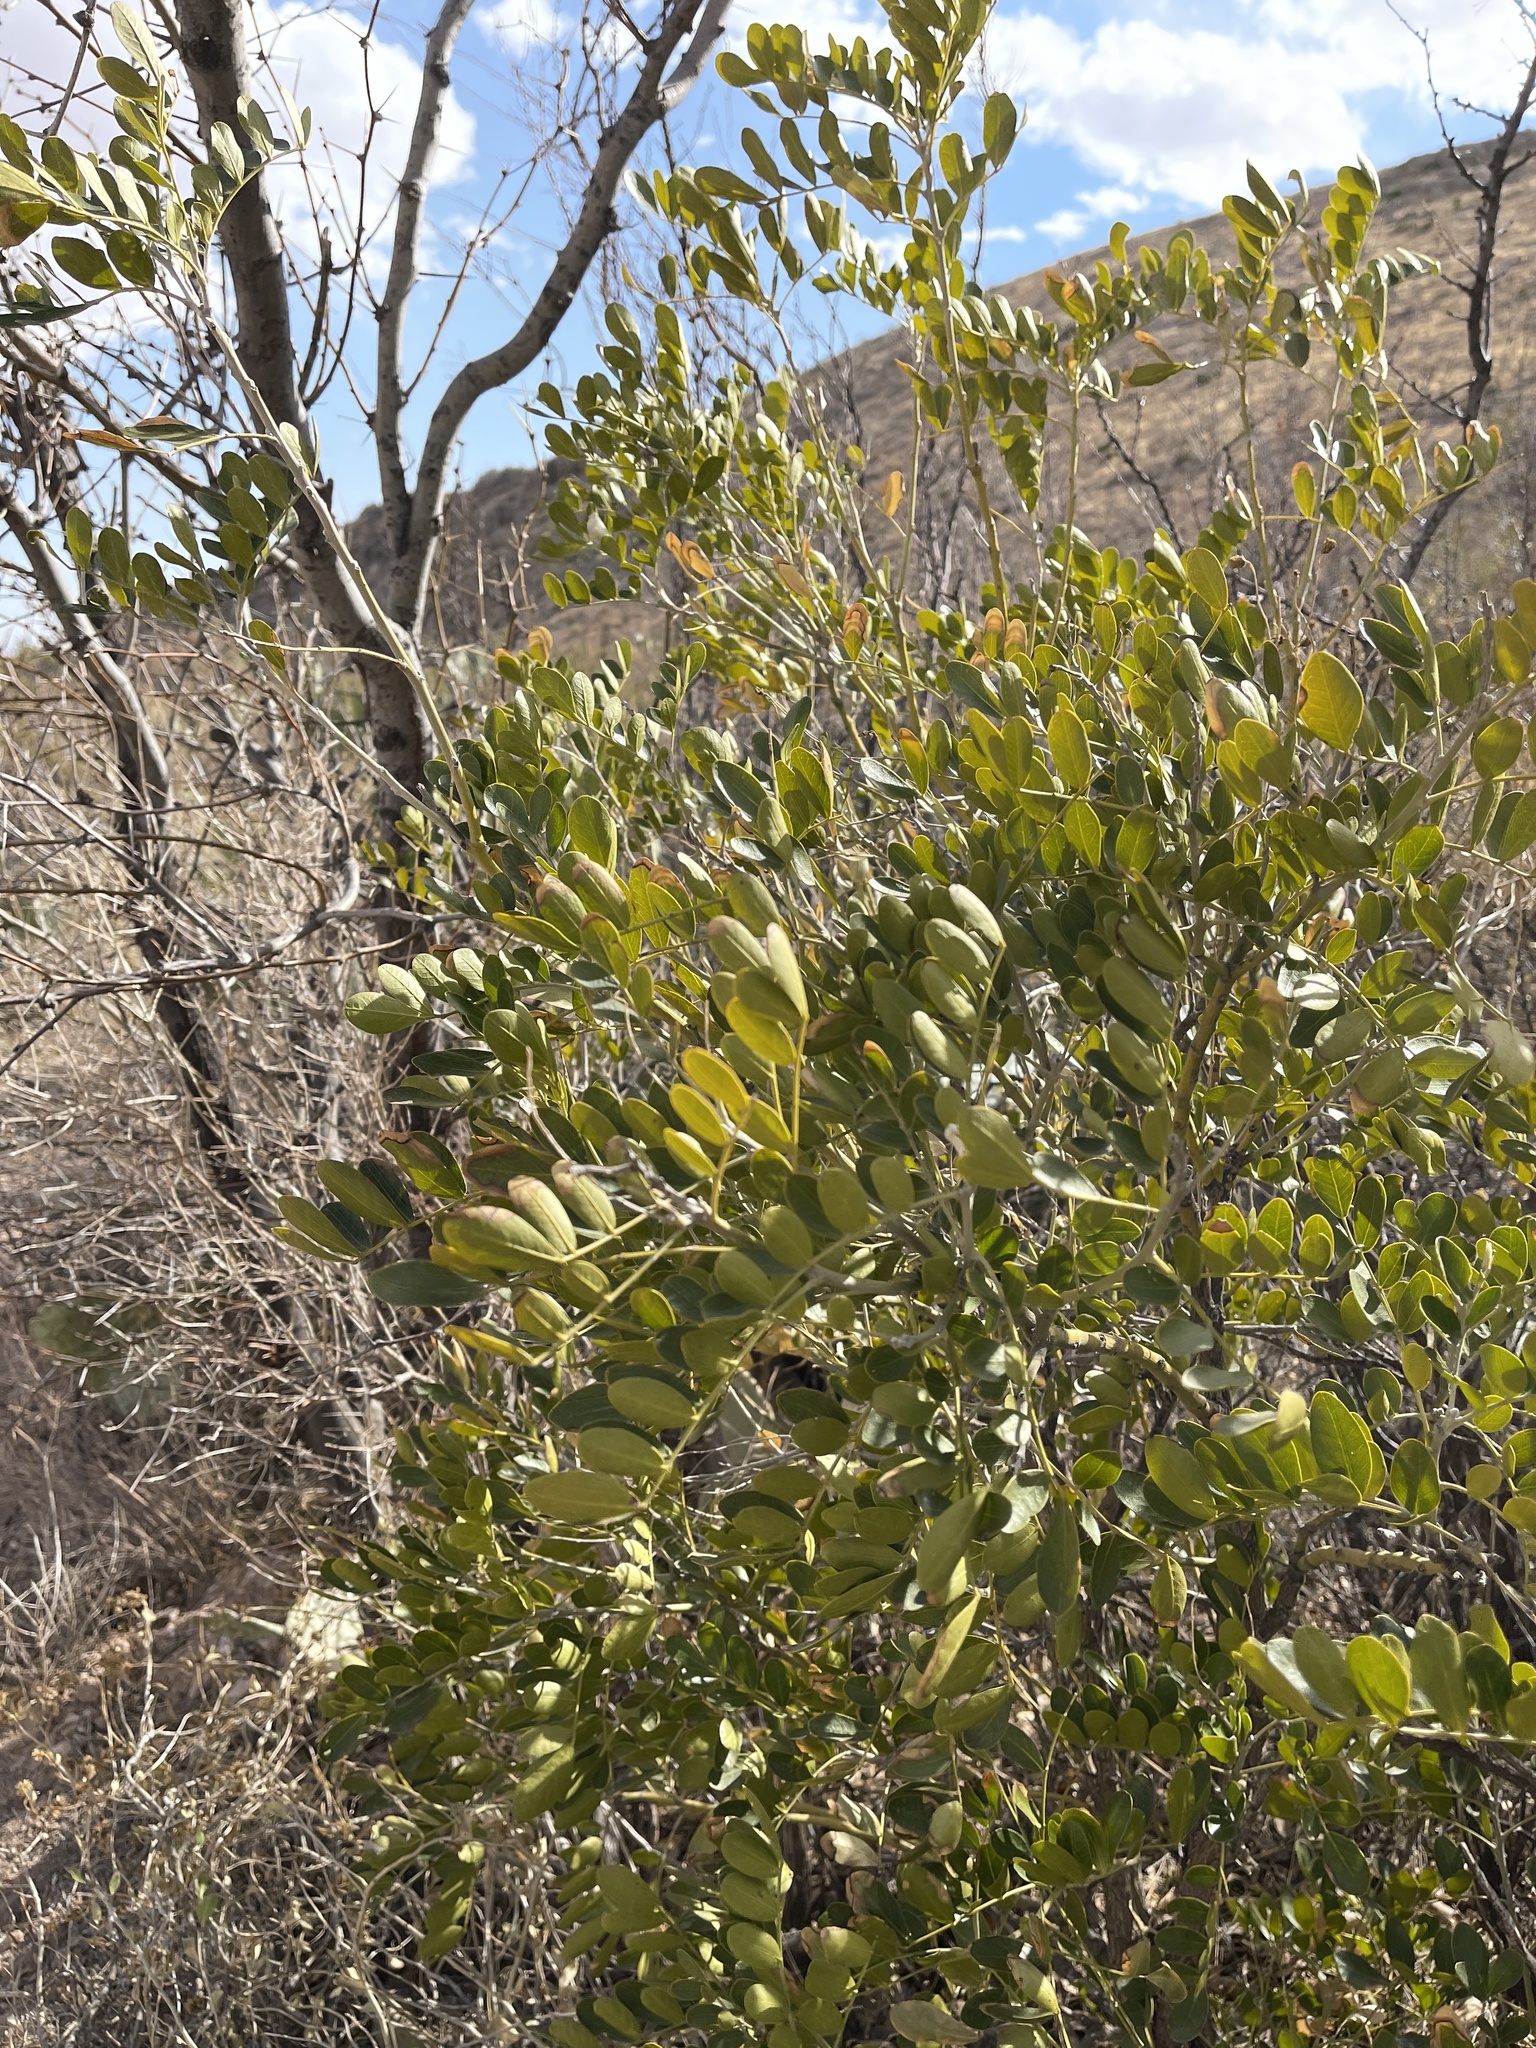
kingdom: Plantae
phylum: Tracheophyta
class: Magnoliopsida
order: Fabales
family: Fabaceae
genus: Dermatophyllum
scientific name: Dermatophyllum secundiflorum
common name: Texas-mountain-laurel
